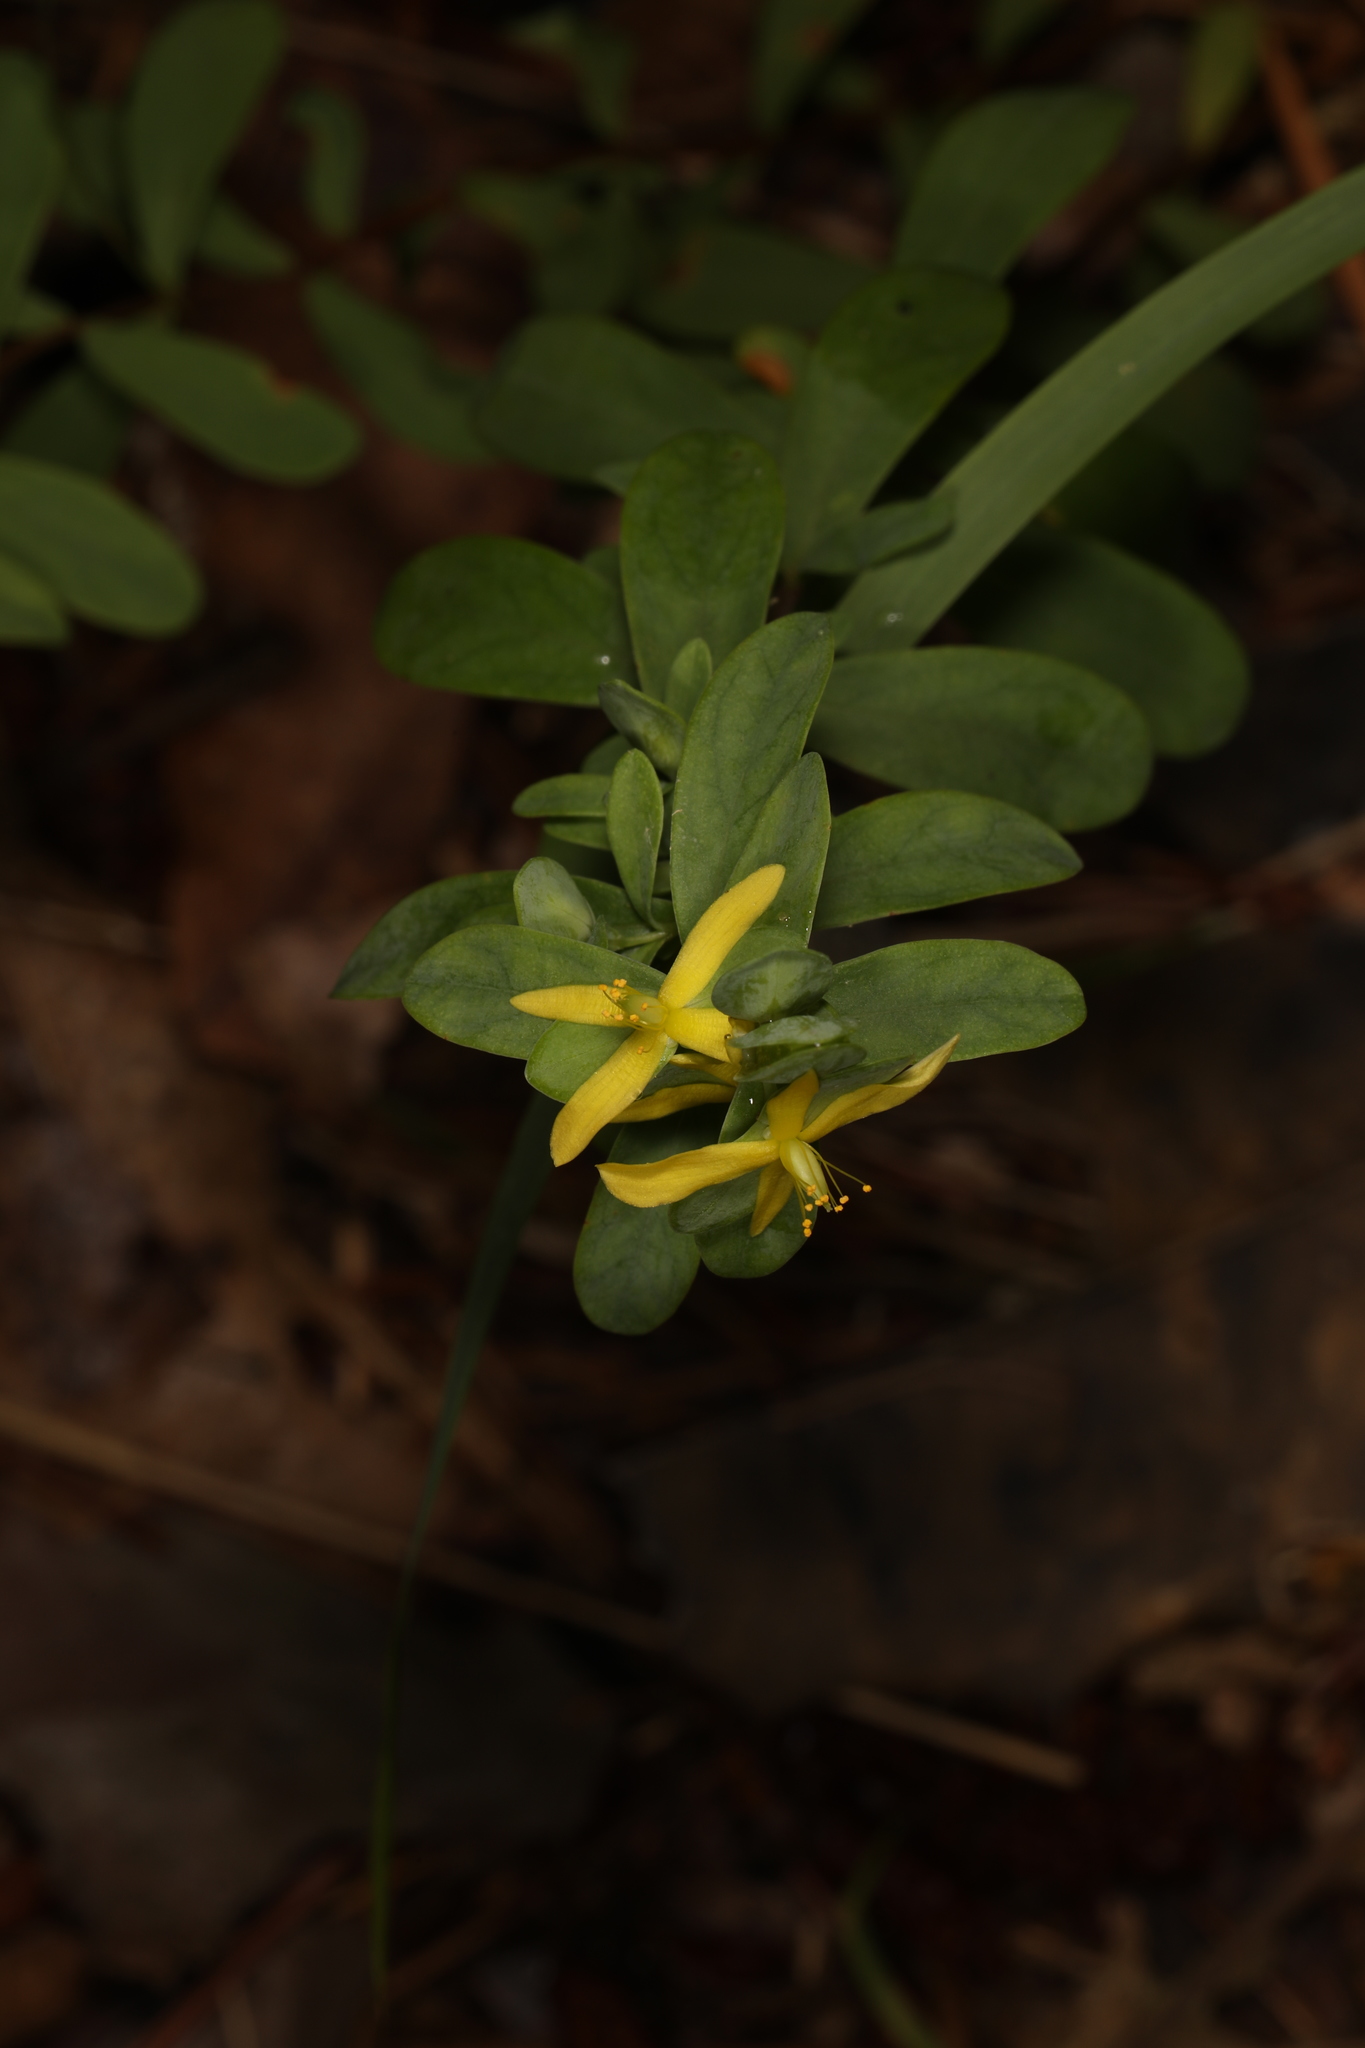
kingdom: Plantae
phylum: Tracheophyta
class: Magnoliopsida
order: Malpighiales
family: Hypericaceae
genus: Hypericum
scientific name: Hypericum hypericoides
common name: St. andrew's cross
